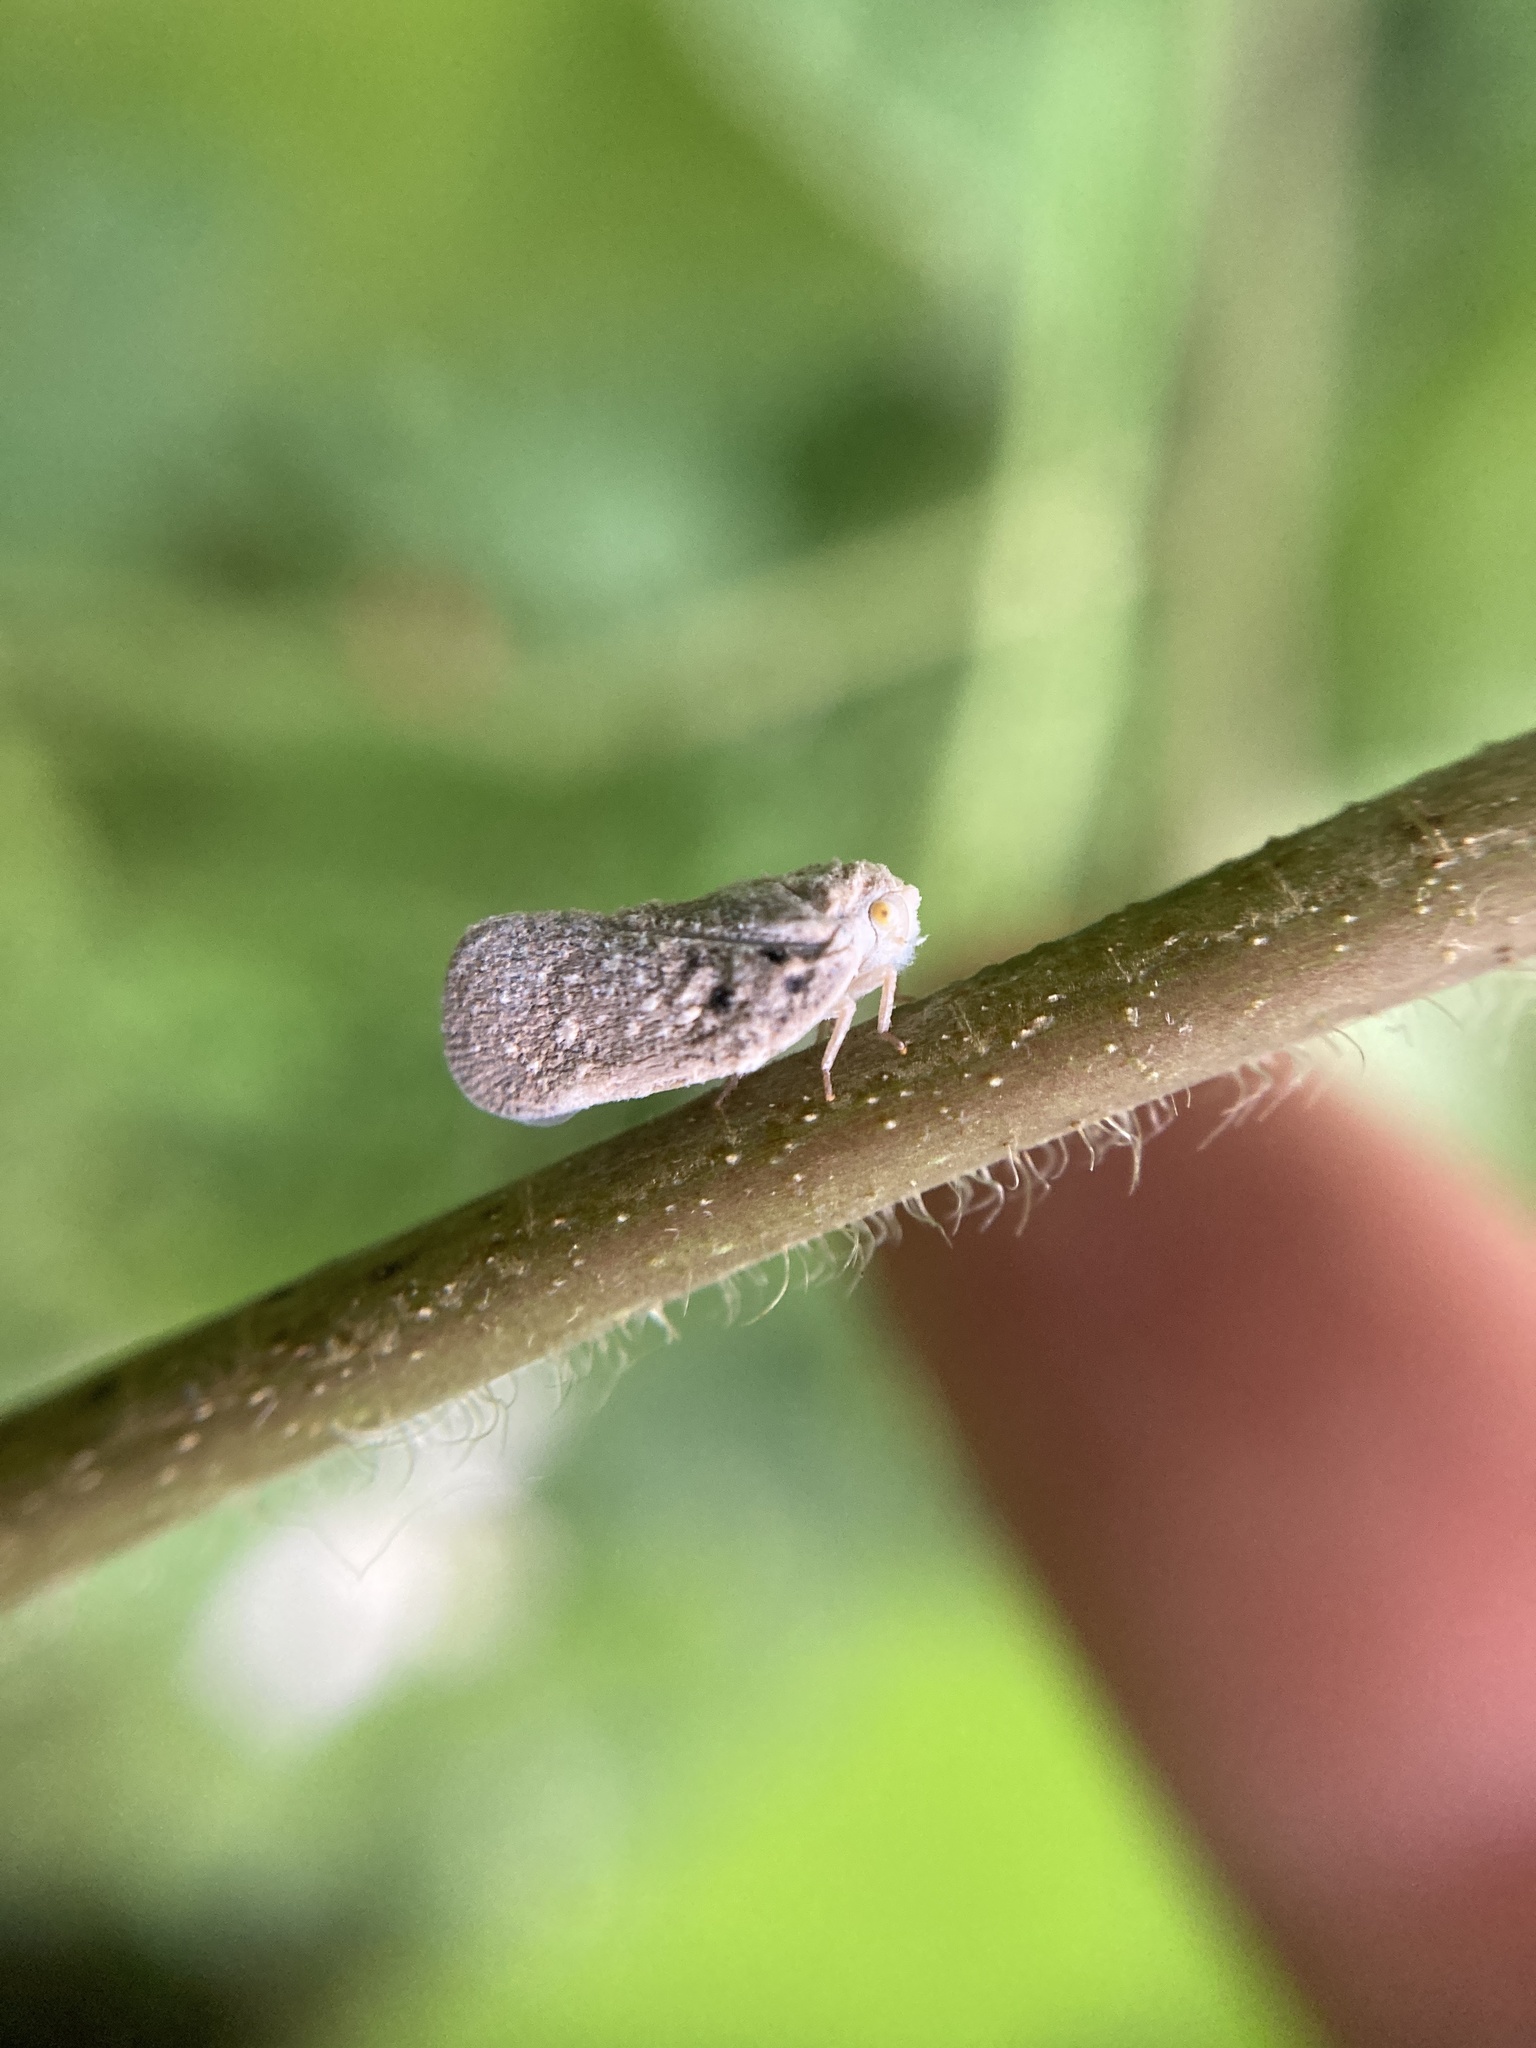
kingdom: Animalia
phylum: Arthropoda
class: Insecta
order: Hemiptera
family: Flatidae
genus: Metcalfa
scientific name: Metcalfa pruinosa
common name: Citrus flatid planthopper
